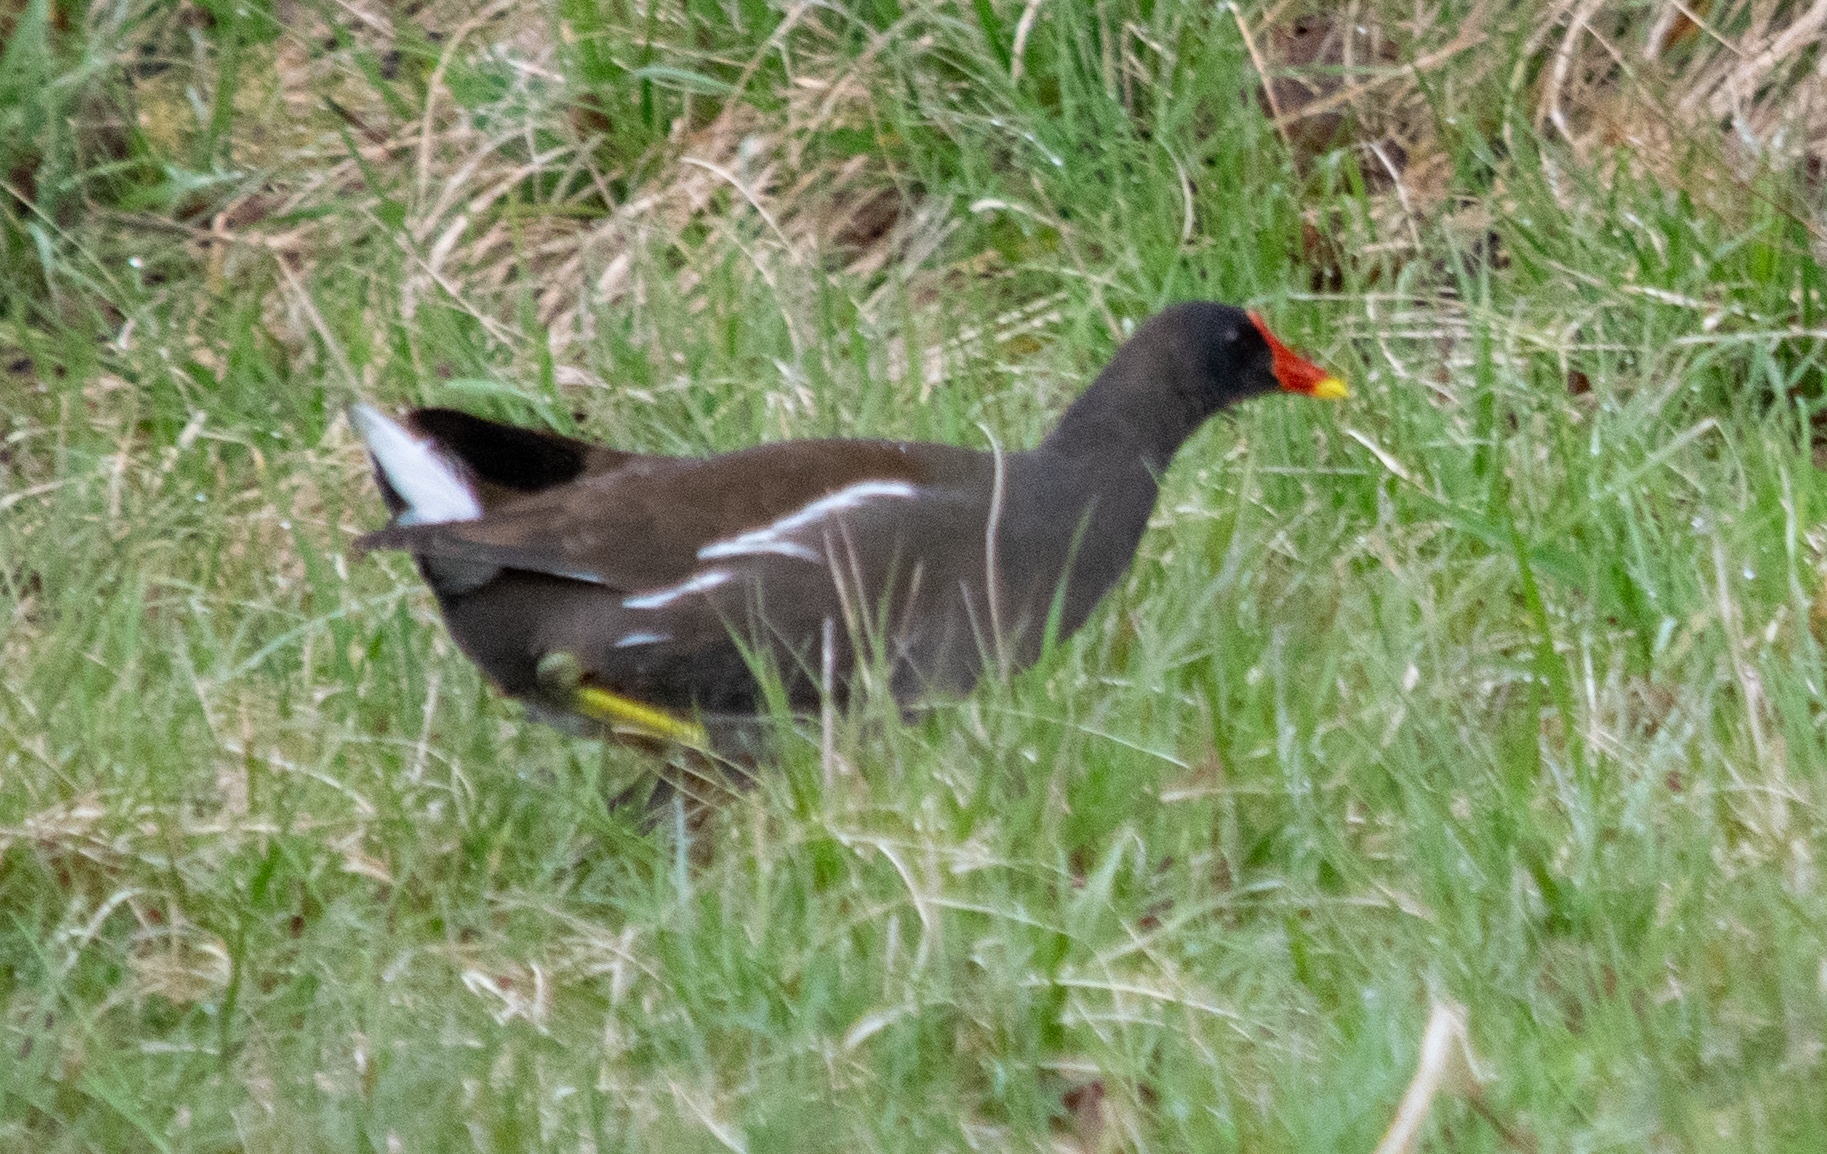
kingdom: Animalia
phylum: Chordata
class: Aves
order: Gruiformes
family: Rallidae
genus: Gallinula
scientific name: Gallinula chloropus
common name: Common moorhen
